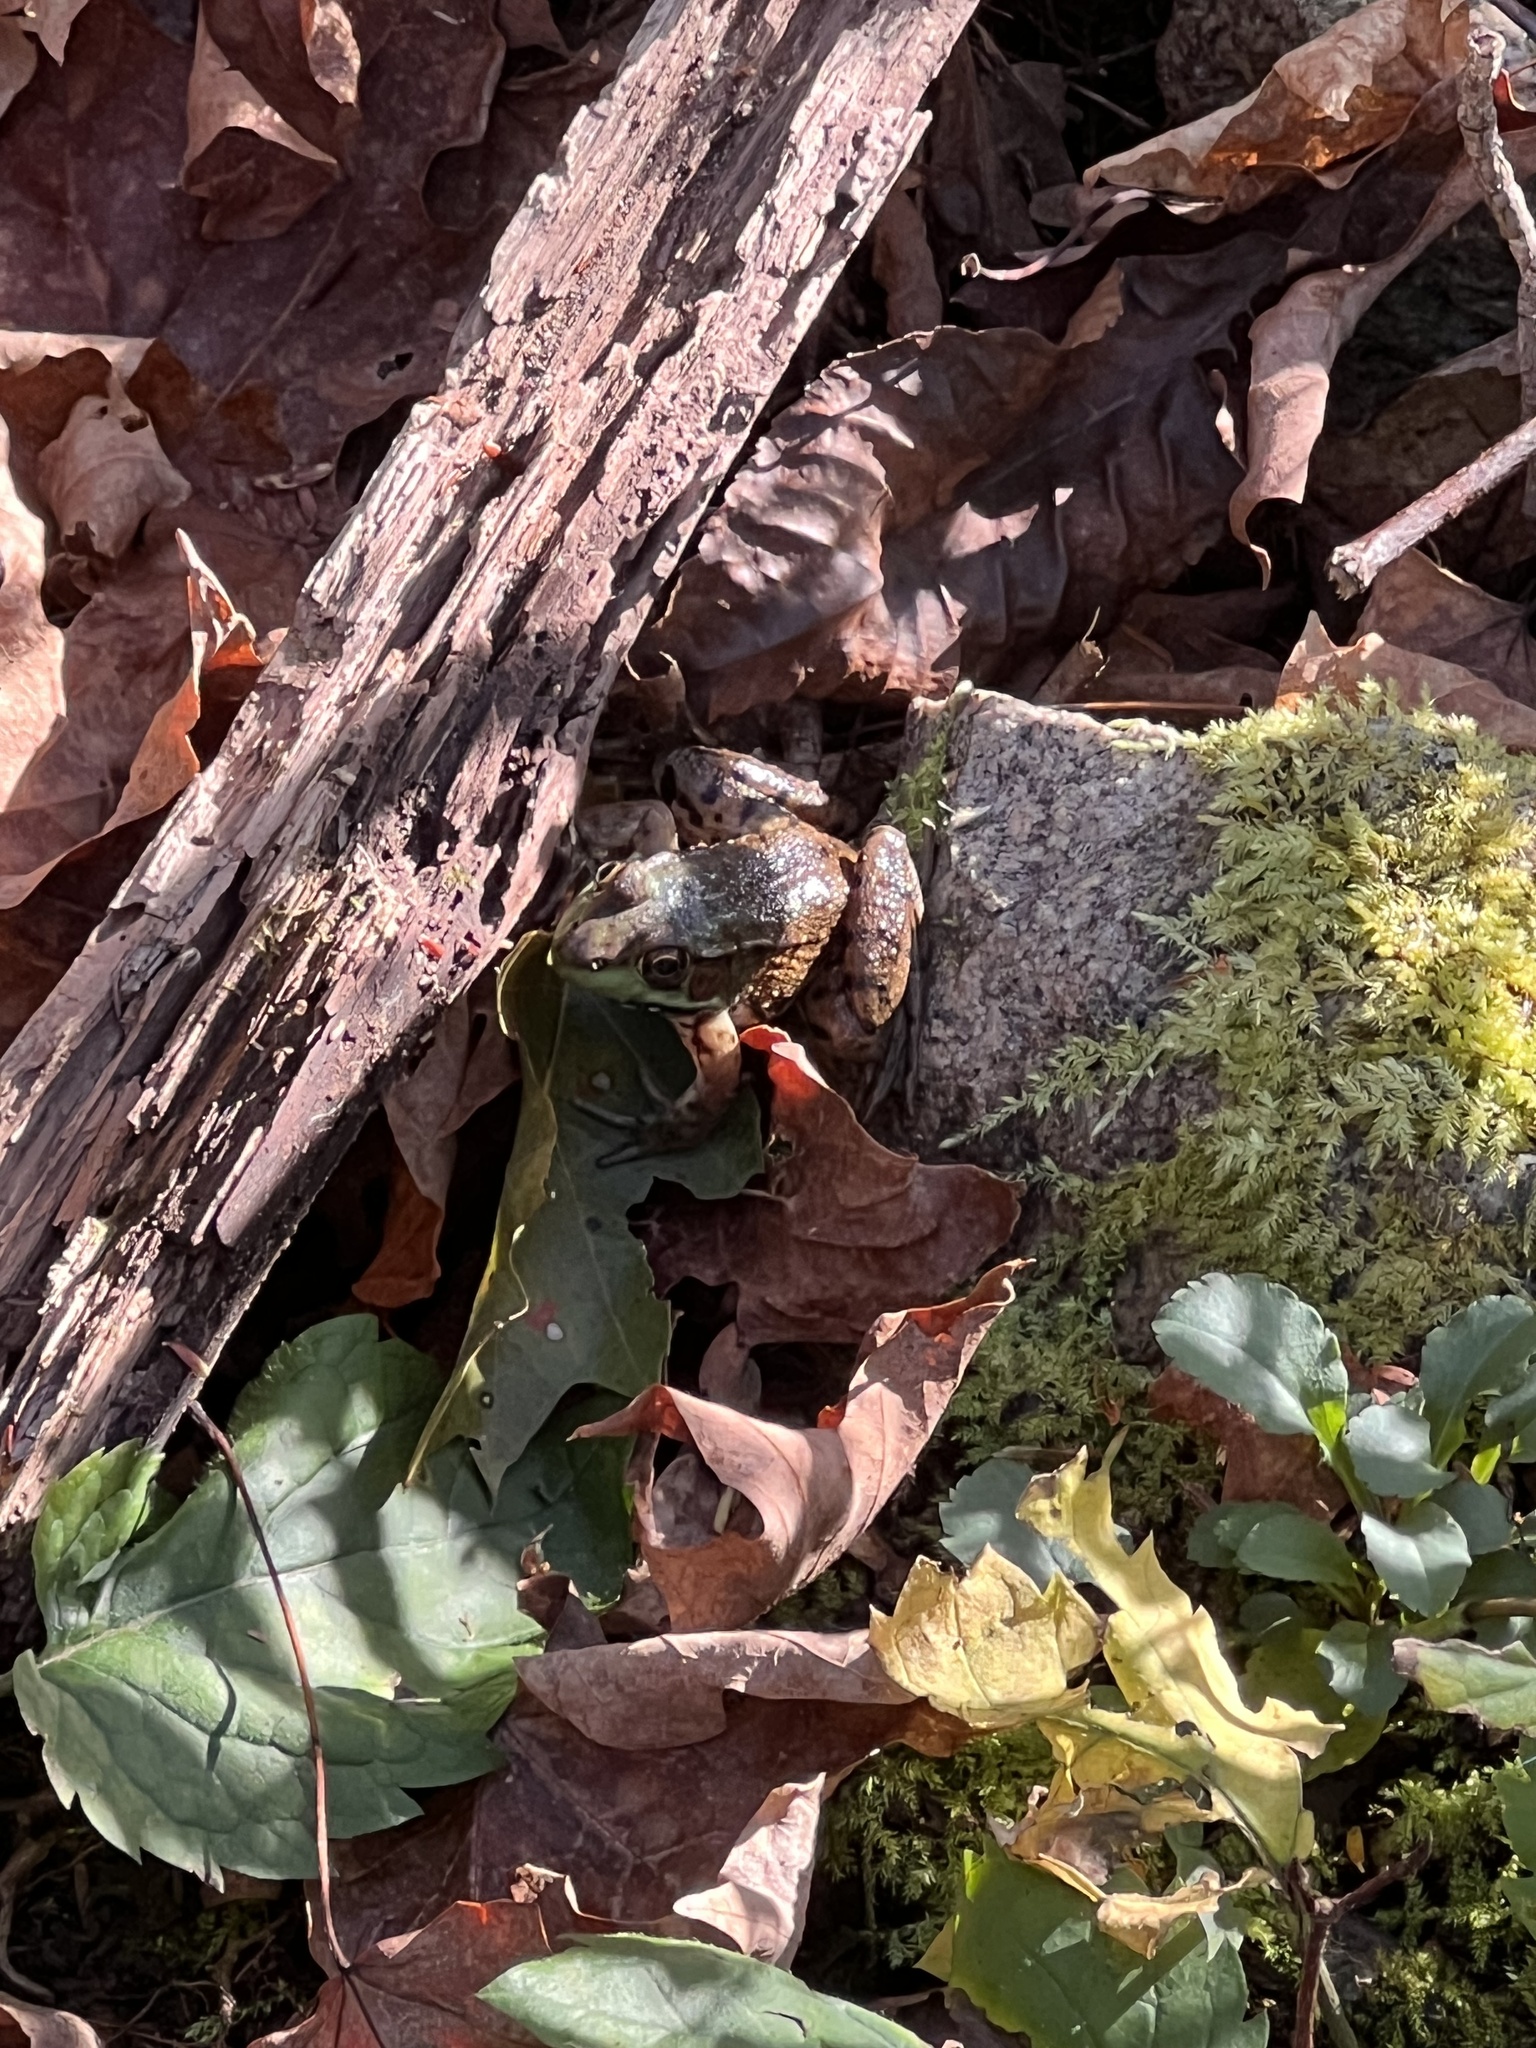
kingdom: Animalia
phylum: Chordata
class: Amphibia
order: Anura
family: Ranidae
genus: Lithobates
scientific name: Lithobates clamitans
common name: Green frog
